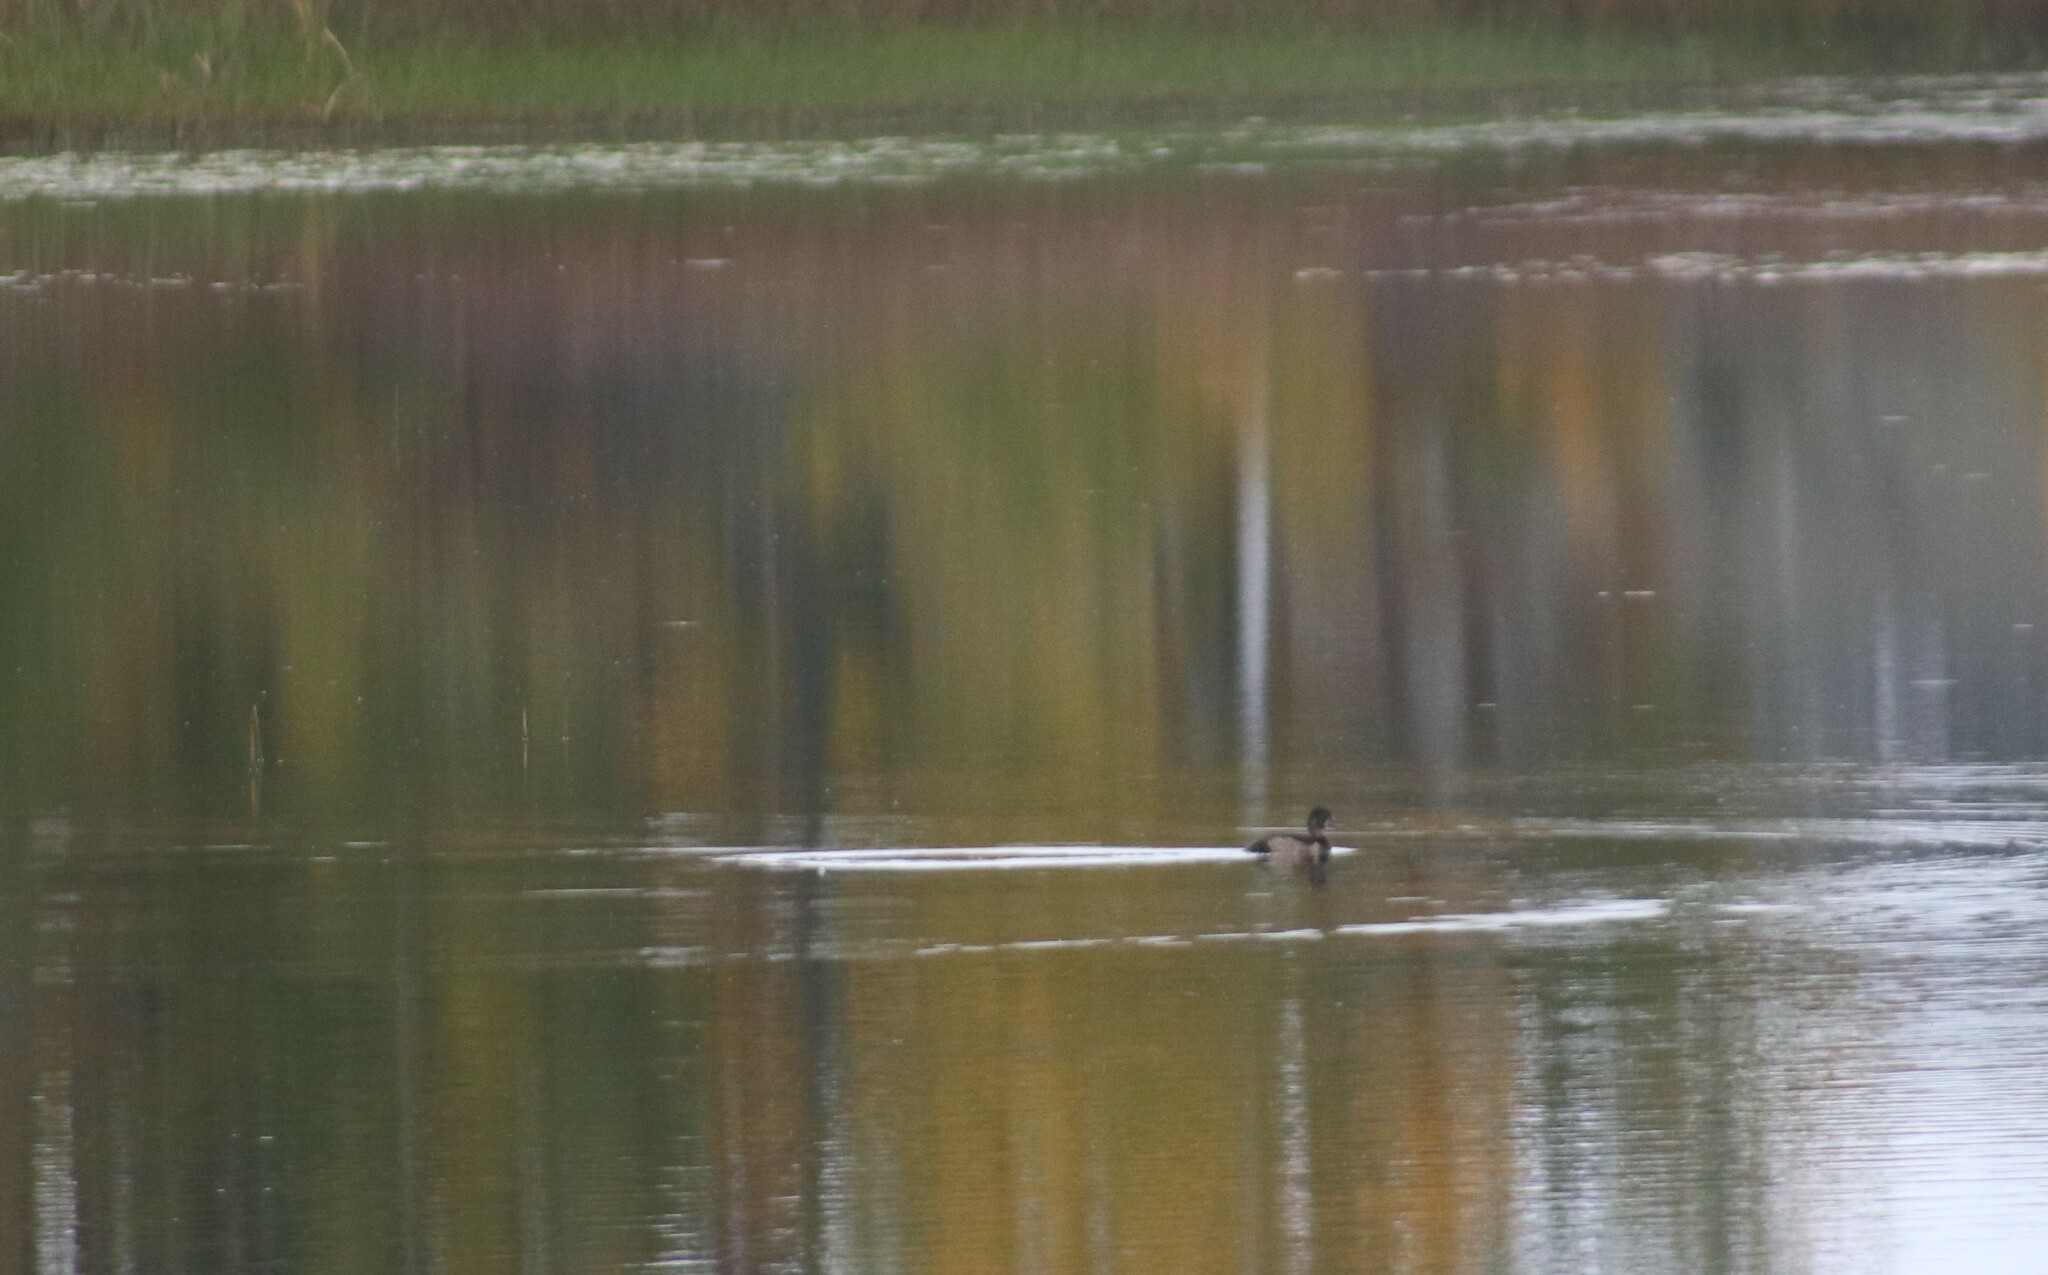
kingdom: Animalia
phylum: Chordata
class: Aves
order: Anseriformes
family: Anatidae
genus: Aythya
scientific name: Aythya collaris
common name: Ring-necked duck
